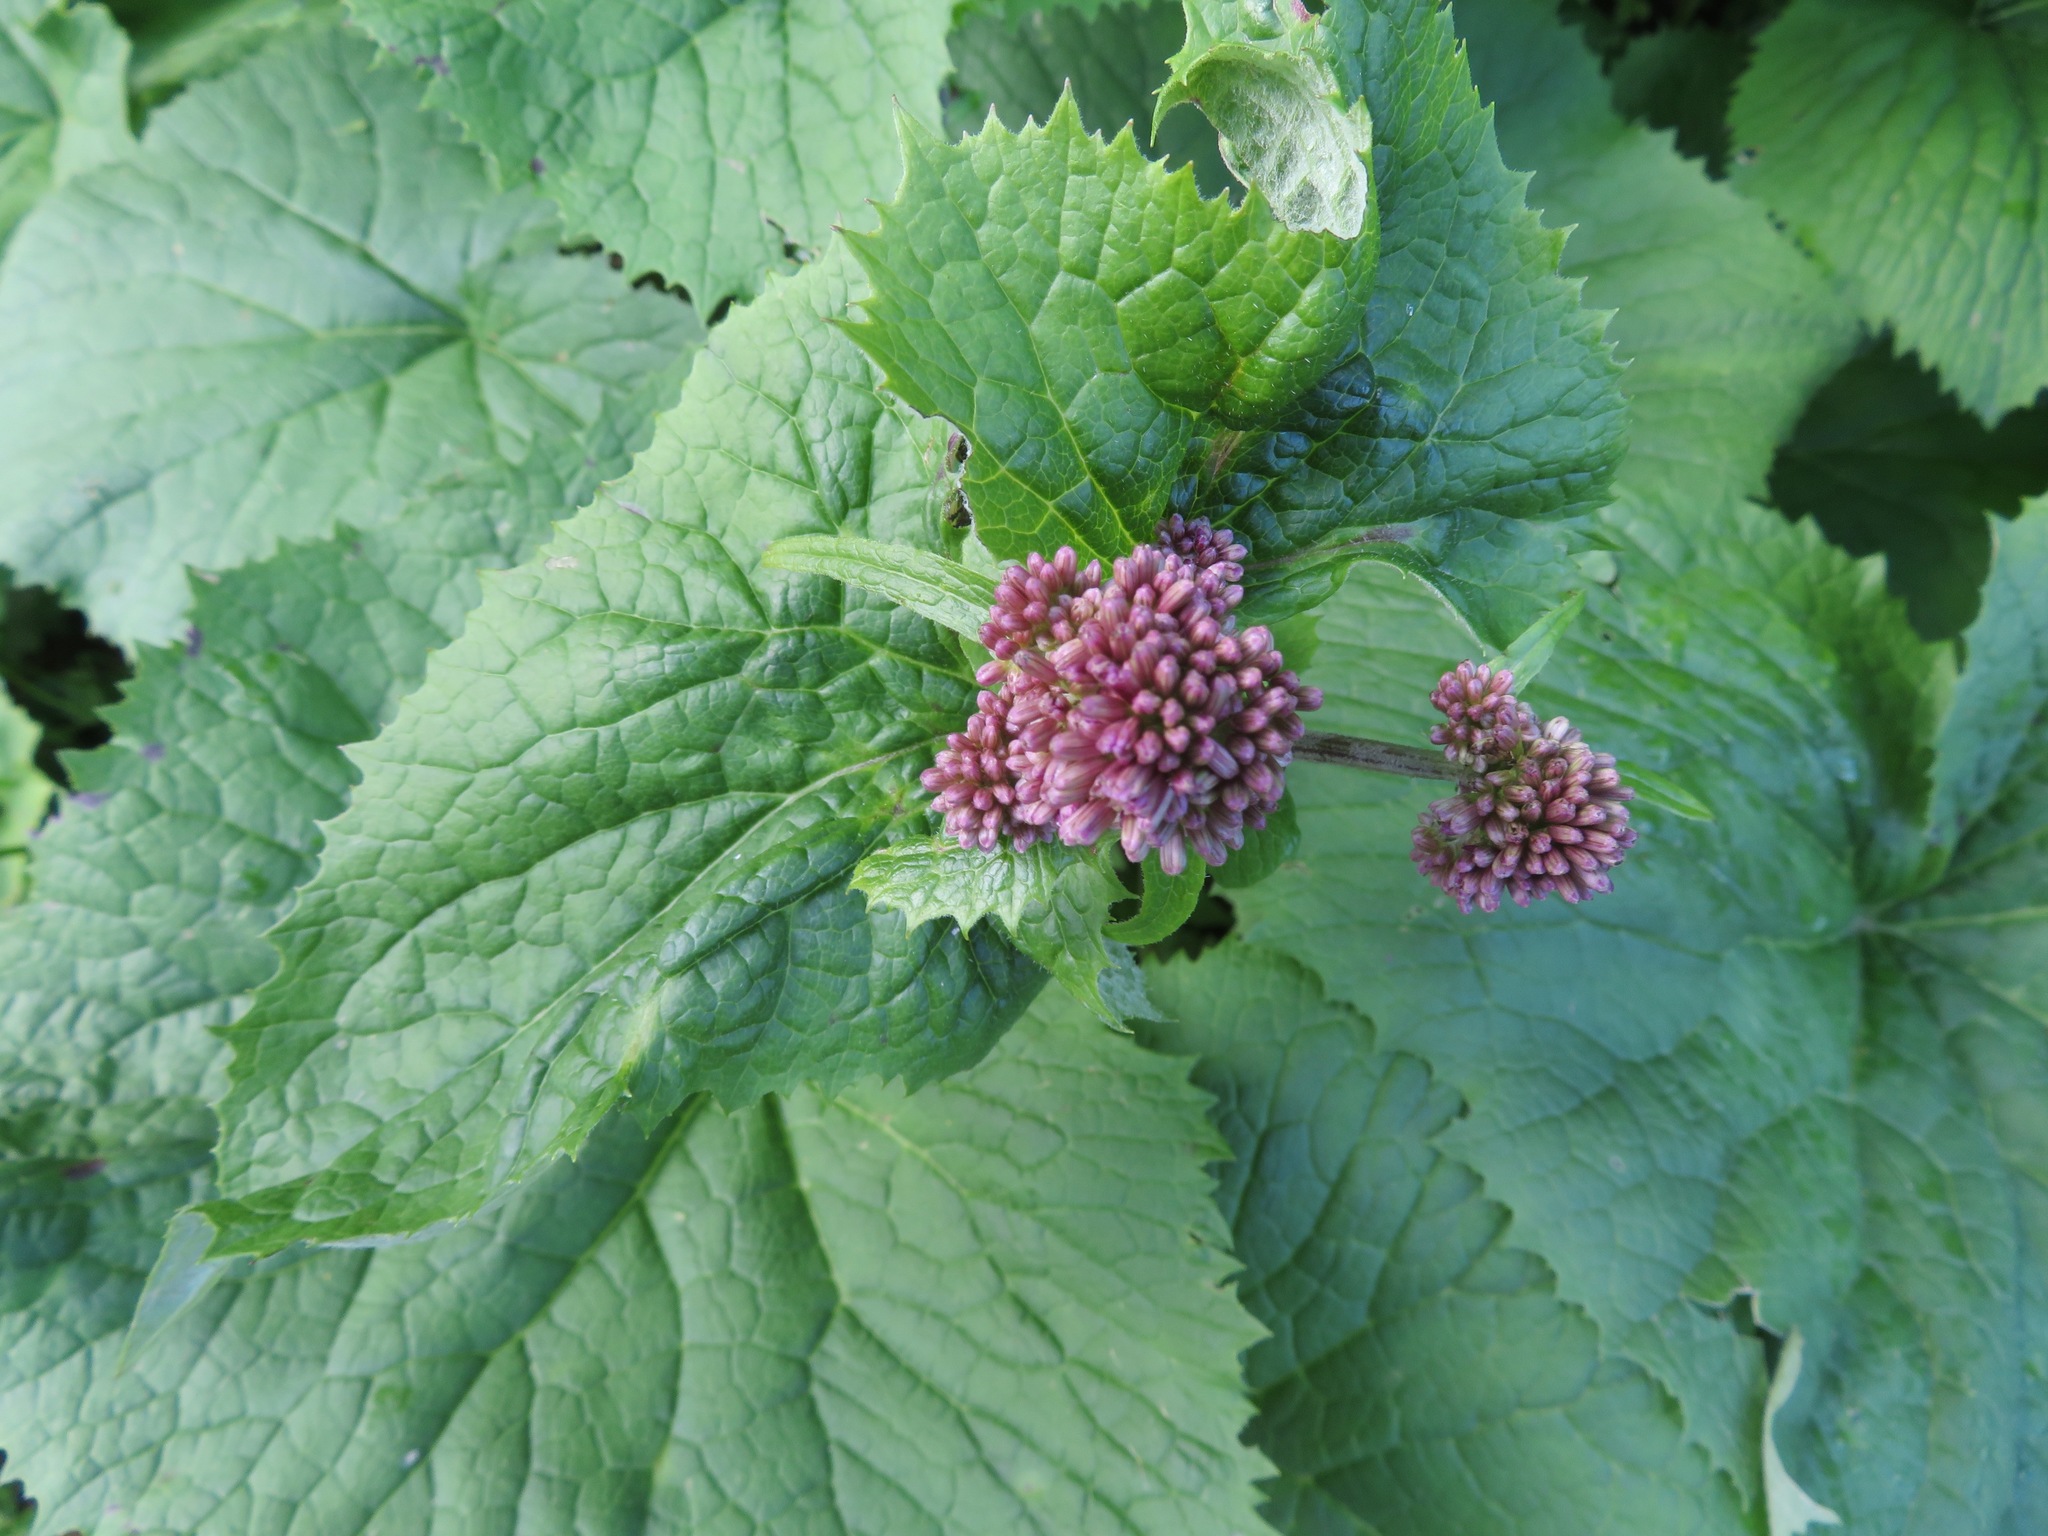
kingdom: Plantae
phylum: Tracheophyta
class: Magnoliopsida
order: Asterales
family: Asteraceae
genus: Adenostyles
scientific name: Adenostyles alliariae
